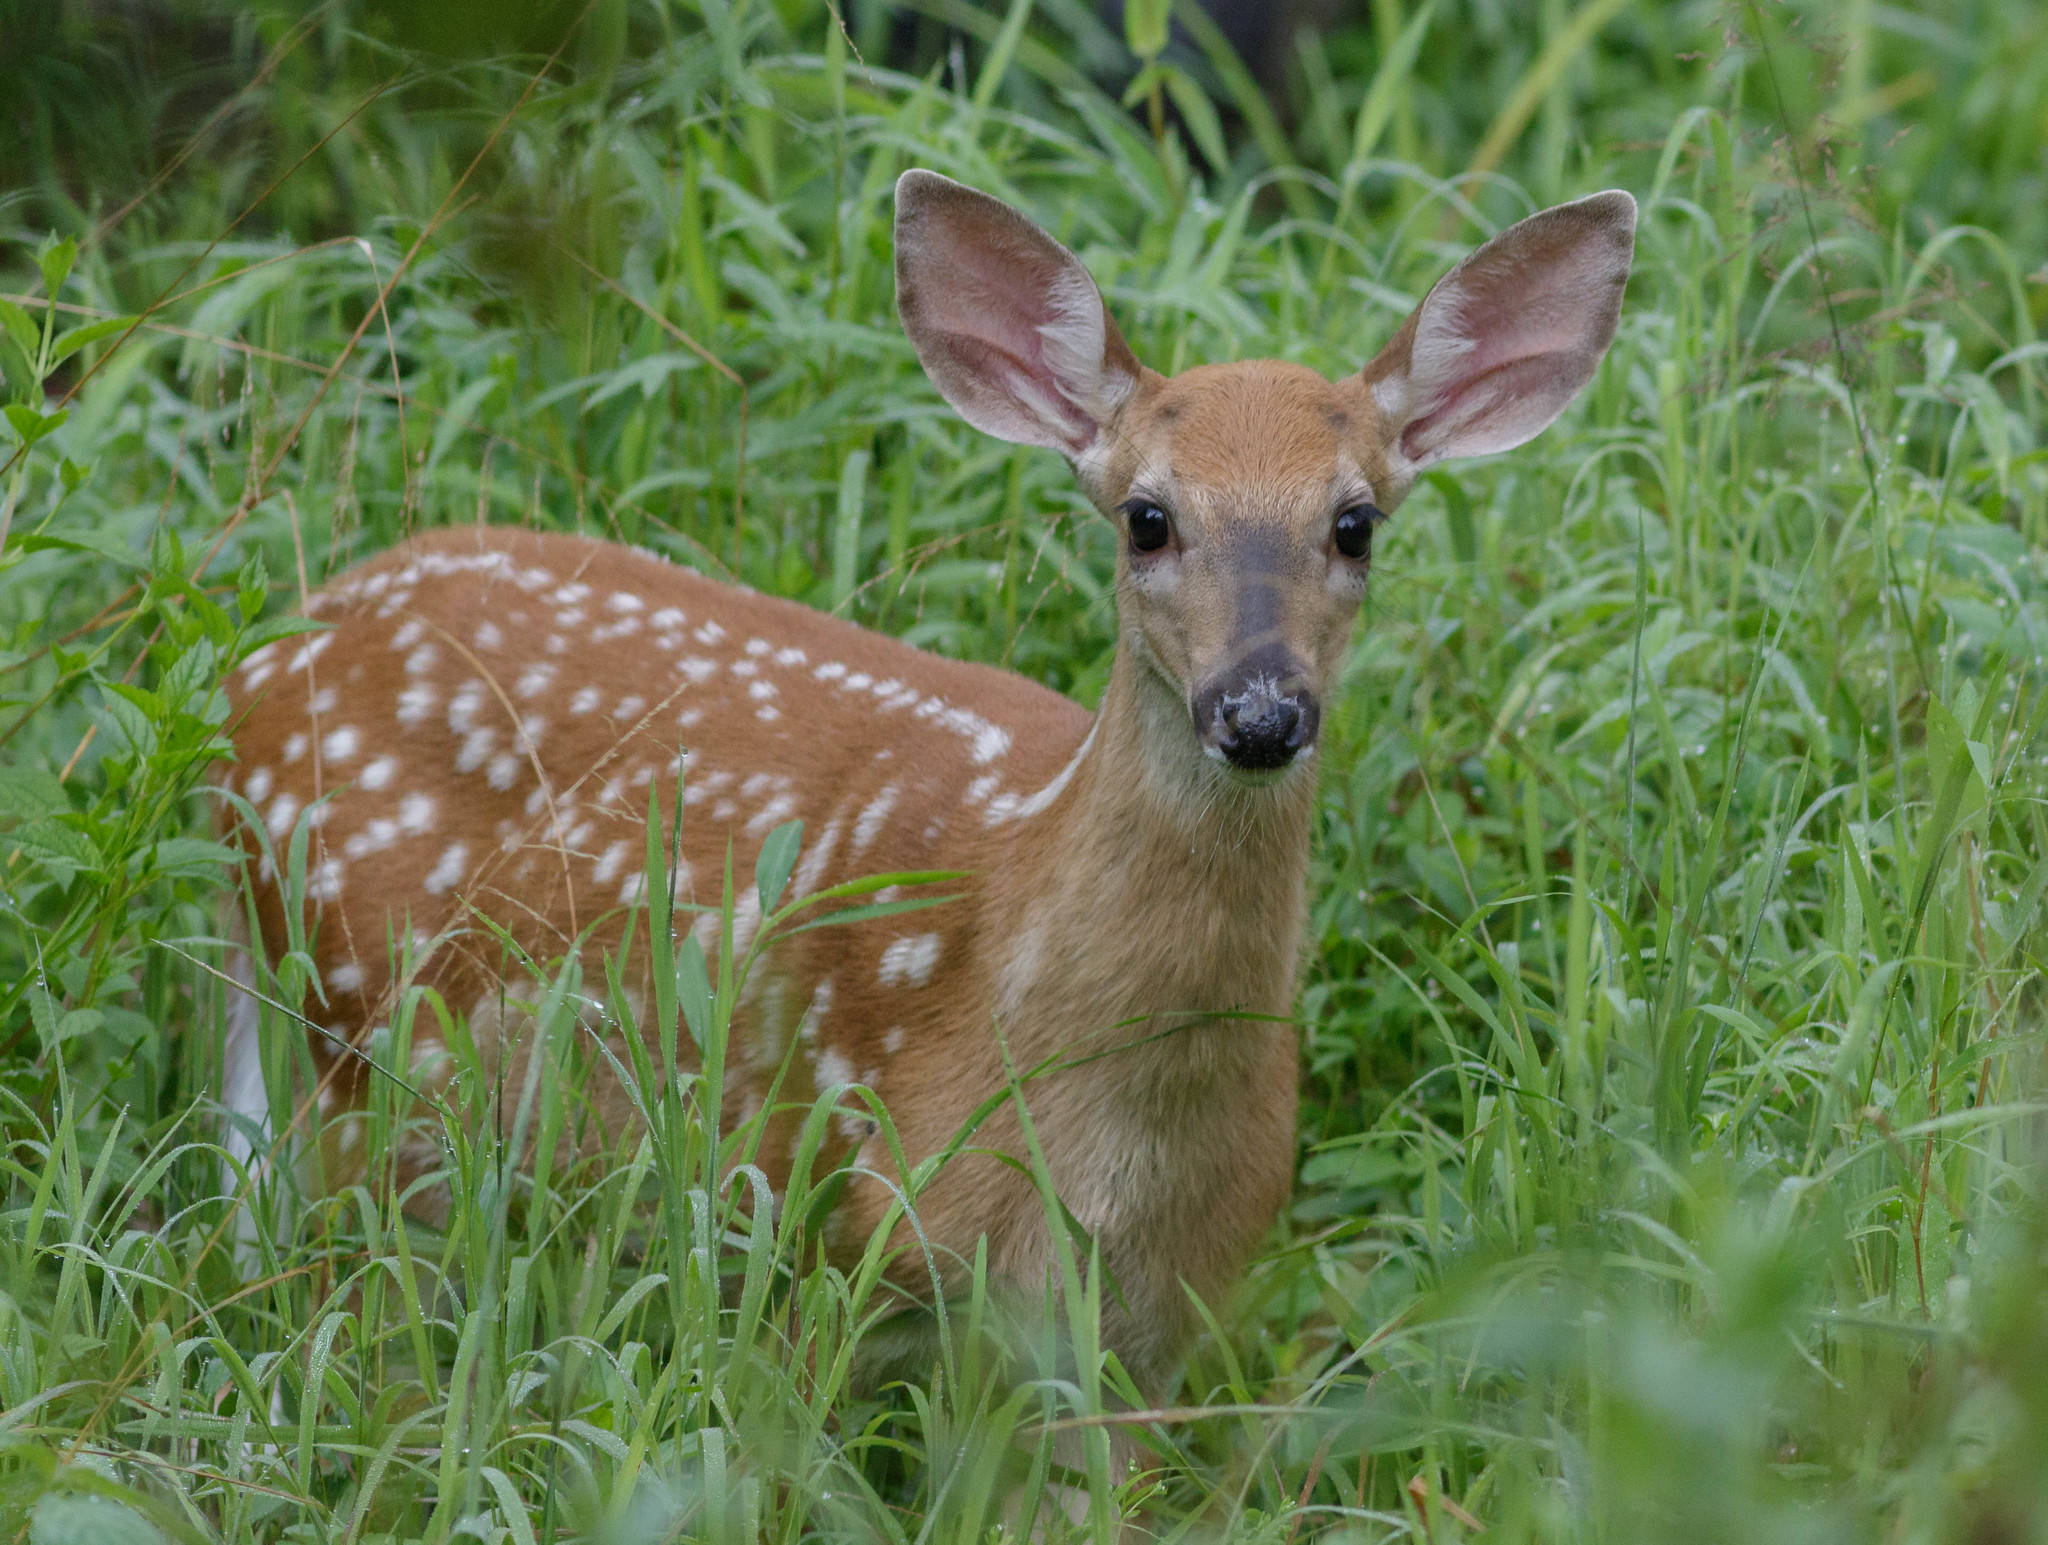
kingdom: Animalia
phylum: Chordata
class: Mammalia
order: Artiodactyla
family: Cervidae
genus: Odocoileus
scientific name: Odocoileus virginianus
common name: White-tailed deer
